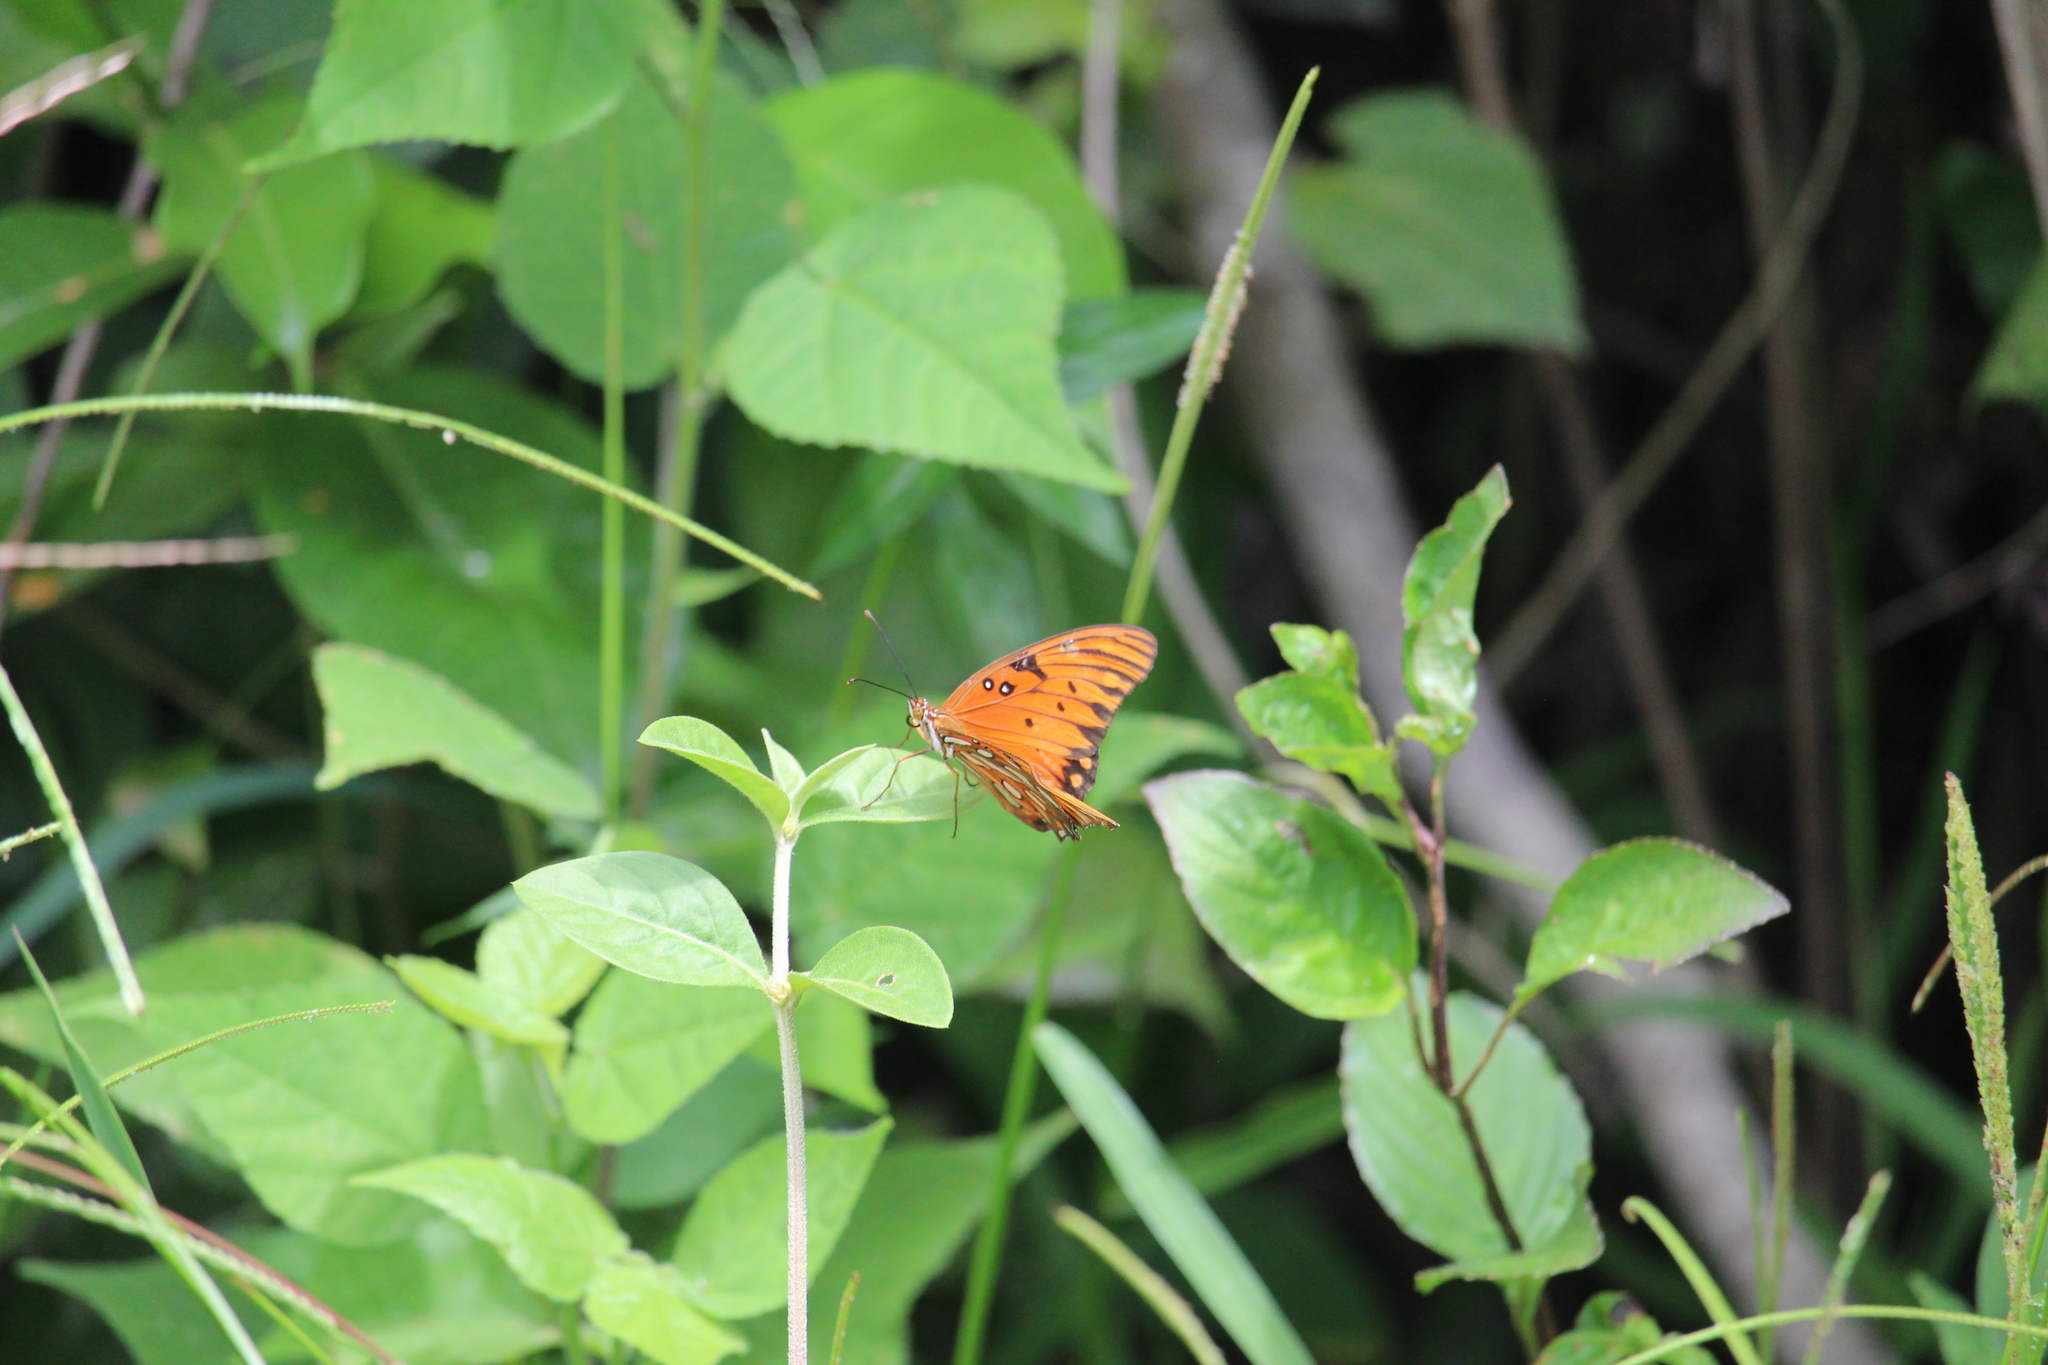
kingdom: Animalia
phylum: Arthropoda
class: Insecta
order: Lepidoptera
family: Nymphalidae
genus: Dione
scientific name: Dione vanillae
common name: Gulf fritillary
